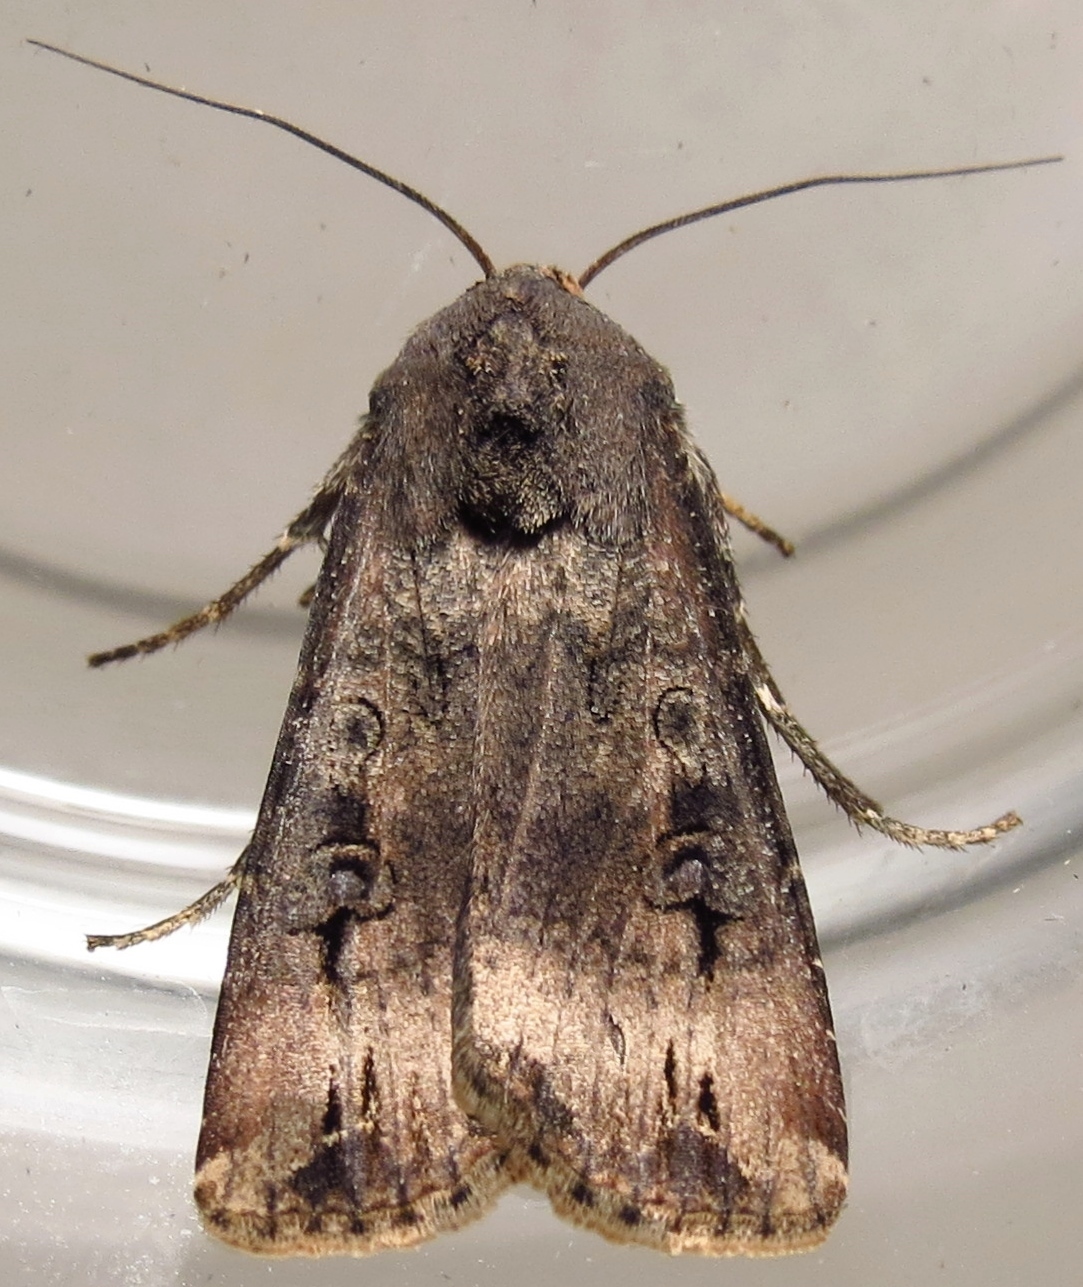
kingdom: Animalia
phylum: Arthropoda
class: Insecta
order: Lepidoptera
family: Noctuidae
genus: Agrotis
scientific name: Agrotis ipsilon
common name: Dark sword-grass
